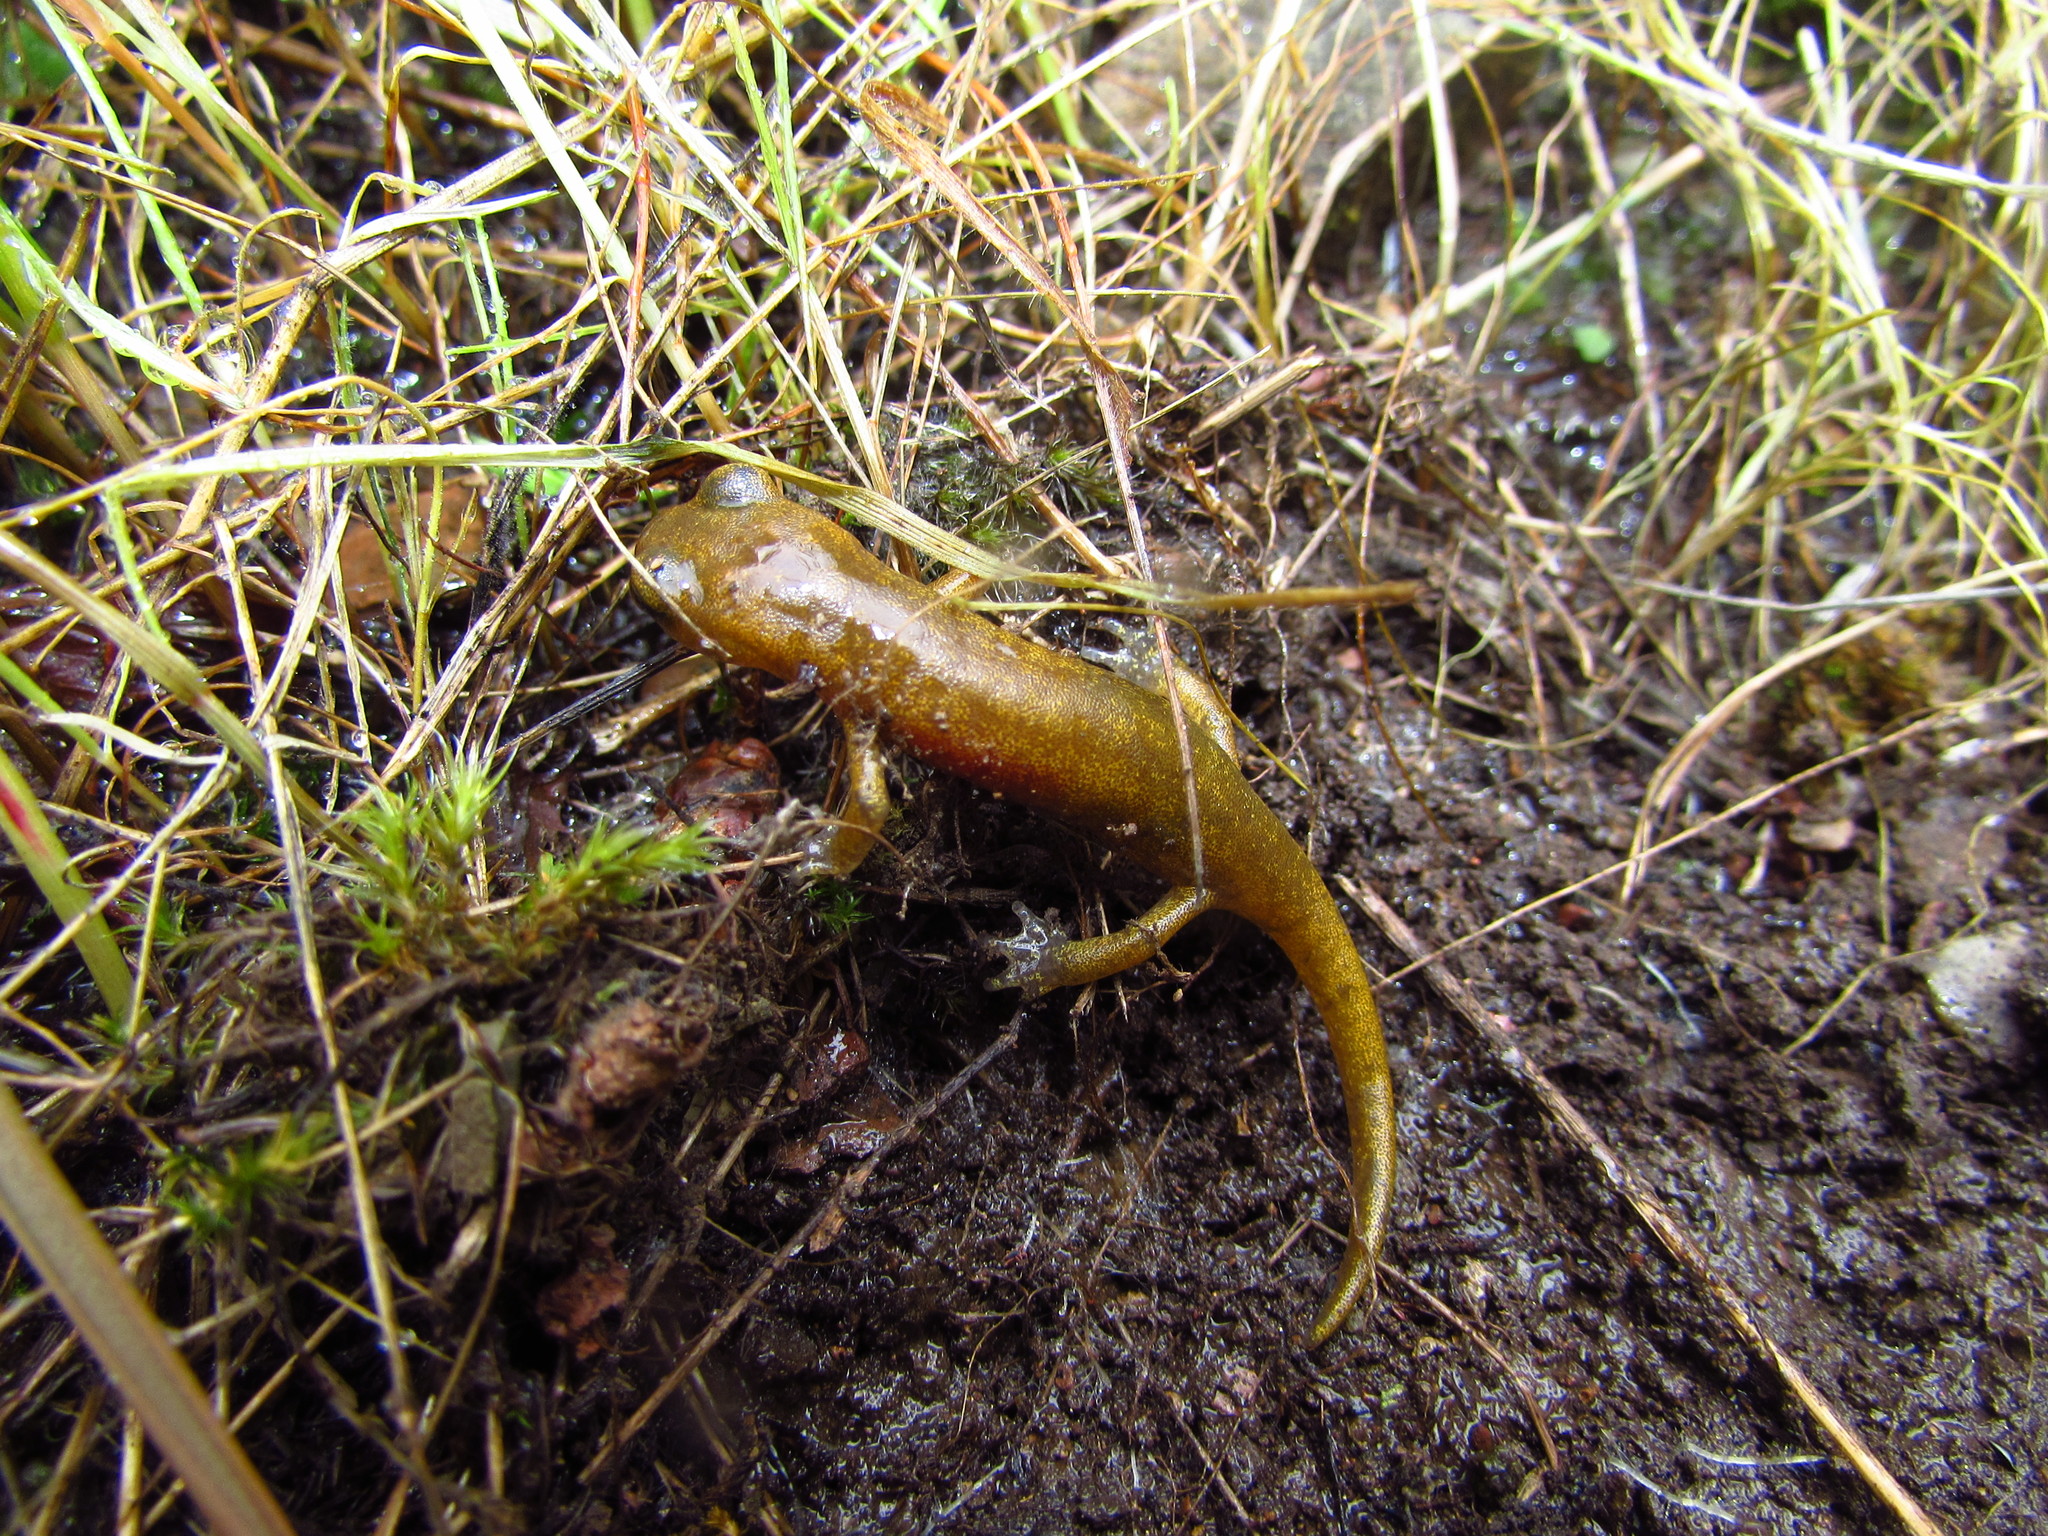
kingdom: Animalia
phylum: Chordata
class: Amphibia
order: Caudata
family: Plethodontidae
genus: Hydromantes
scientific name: Hydromantes brunus
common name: Limestone salamander
